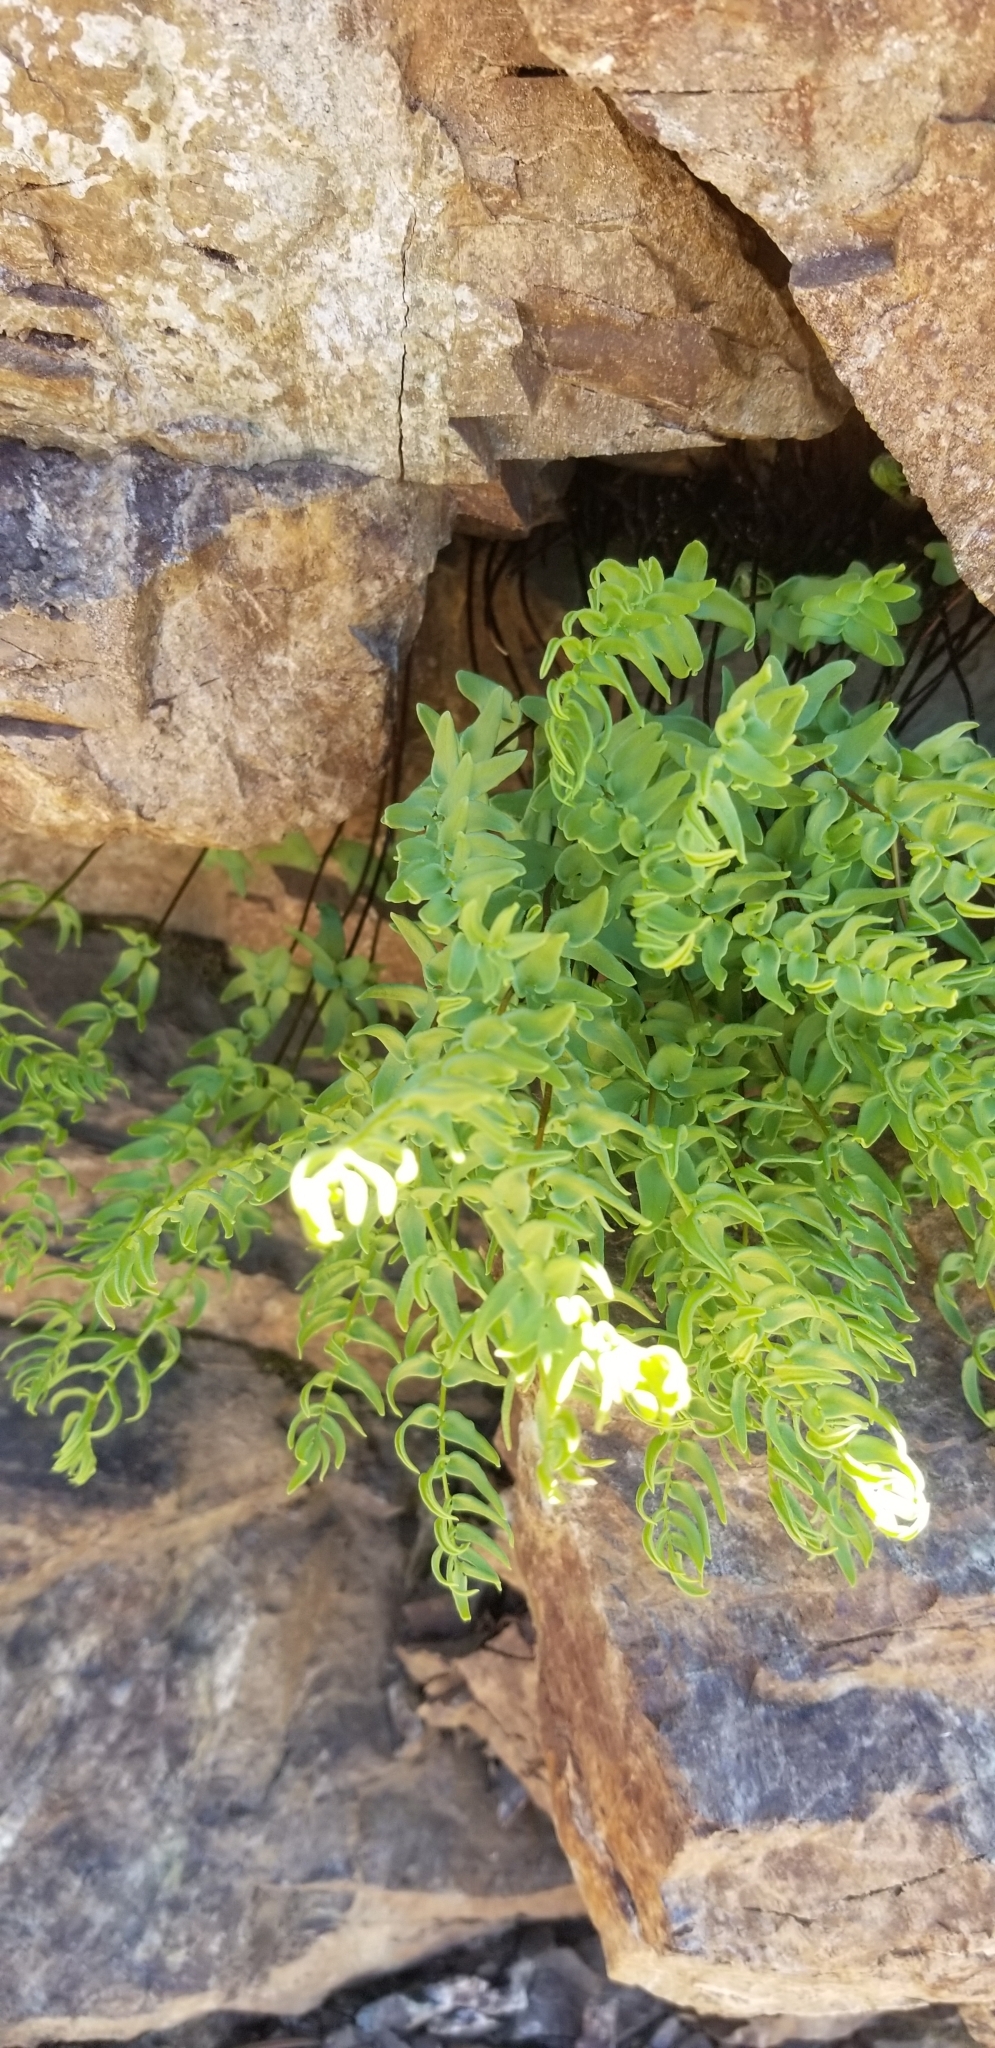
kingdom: Plantae
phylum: Tracheophyta
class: Polypodiopsida
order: Polypodiales
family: Pteridaceae
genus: Pellaea
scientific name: Pellaea breweri
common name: Brewer's cliffbrake
